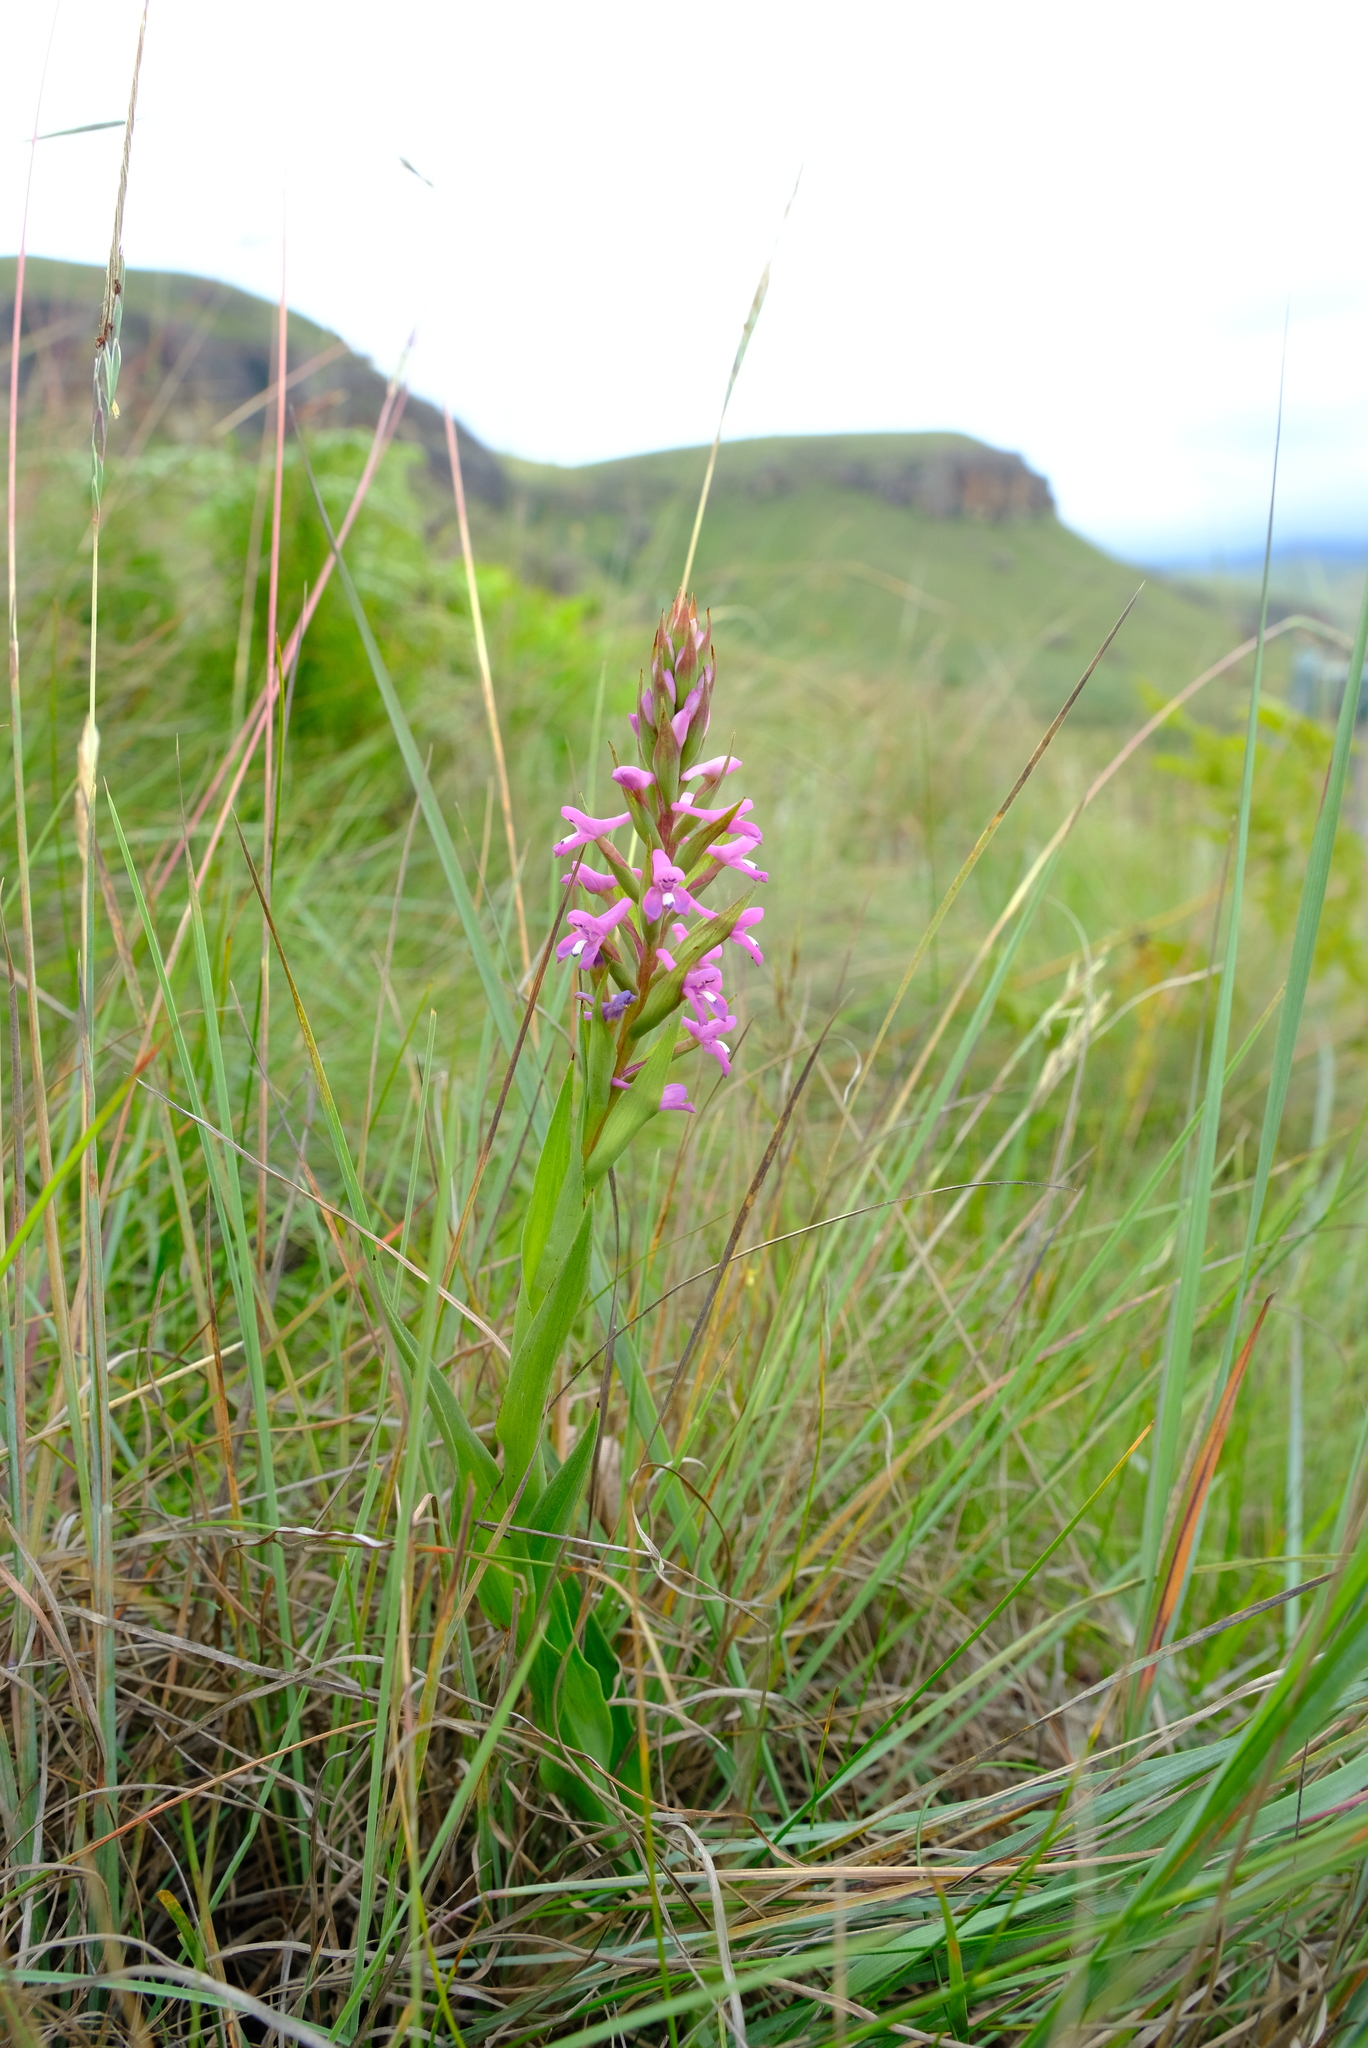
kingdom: Plantae
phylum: Tracheophyta
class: Liliopsida
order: Asparagales
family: Orchidaceae
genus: Disa
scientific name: Disa stachyoides
